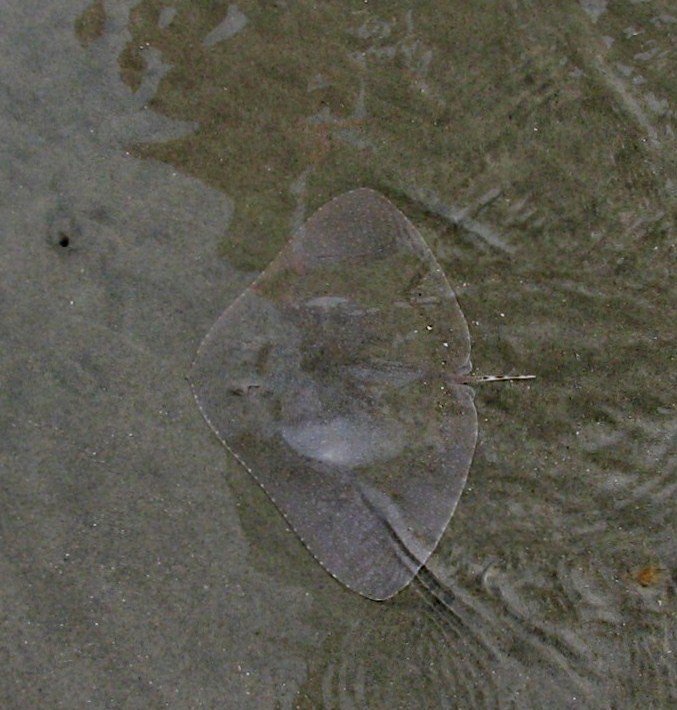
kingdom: Animalia
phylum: Chordata
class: Elasmobranchii
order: Myliobatiformes
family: Gymnuridae
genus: Gymnura
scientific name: Gymnura lessae
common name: Lessa's butterfly ray
